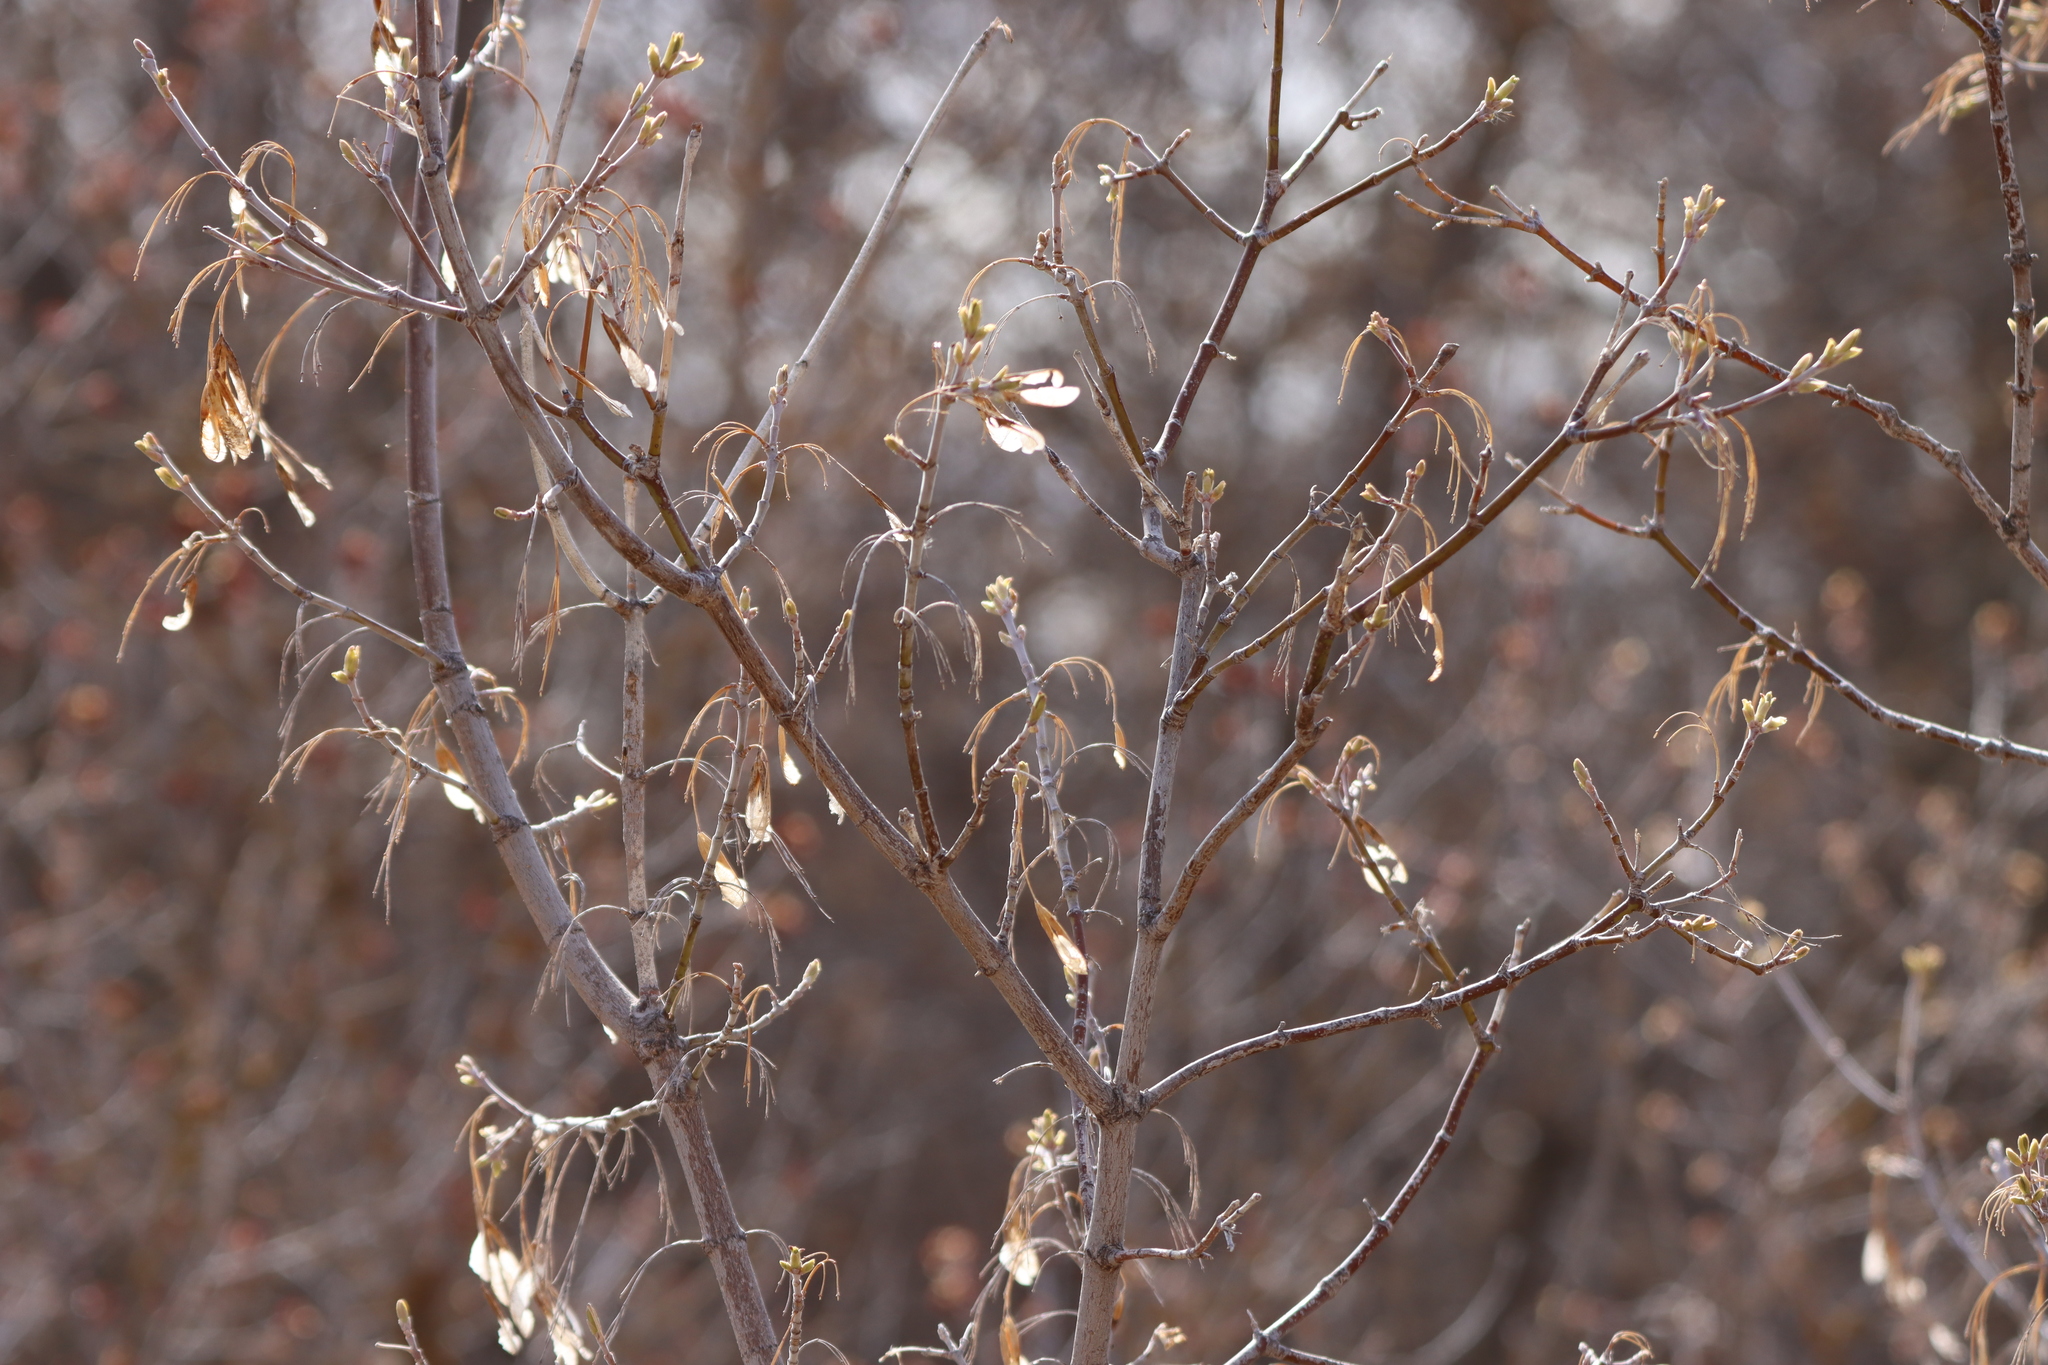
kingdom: Plantae
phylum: Tracheophyta
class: Magnoliopsida
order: Sapindales
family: Sapindaceae
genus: Acer
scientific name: Acer negundo
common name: Ashleaf maple
